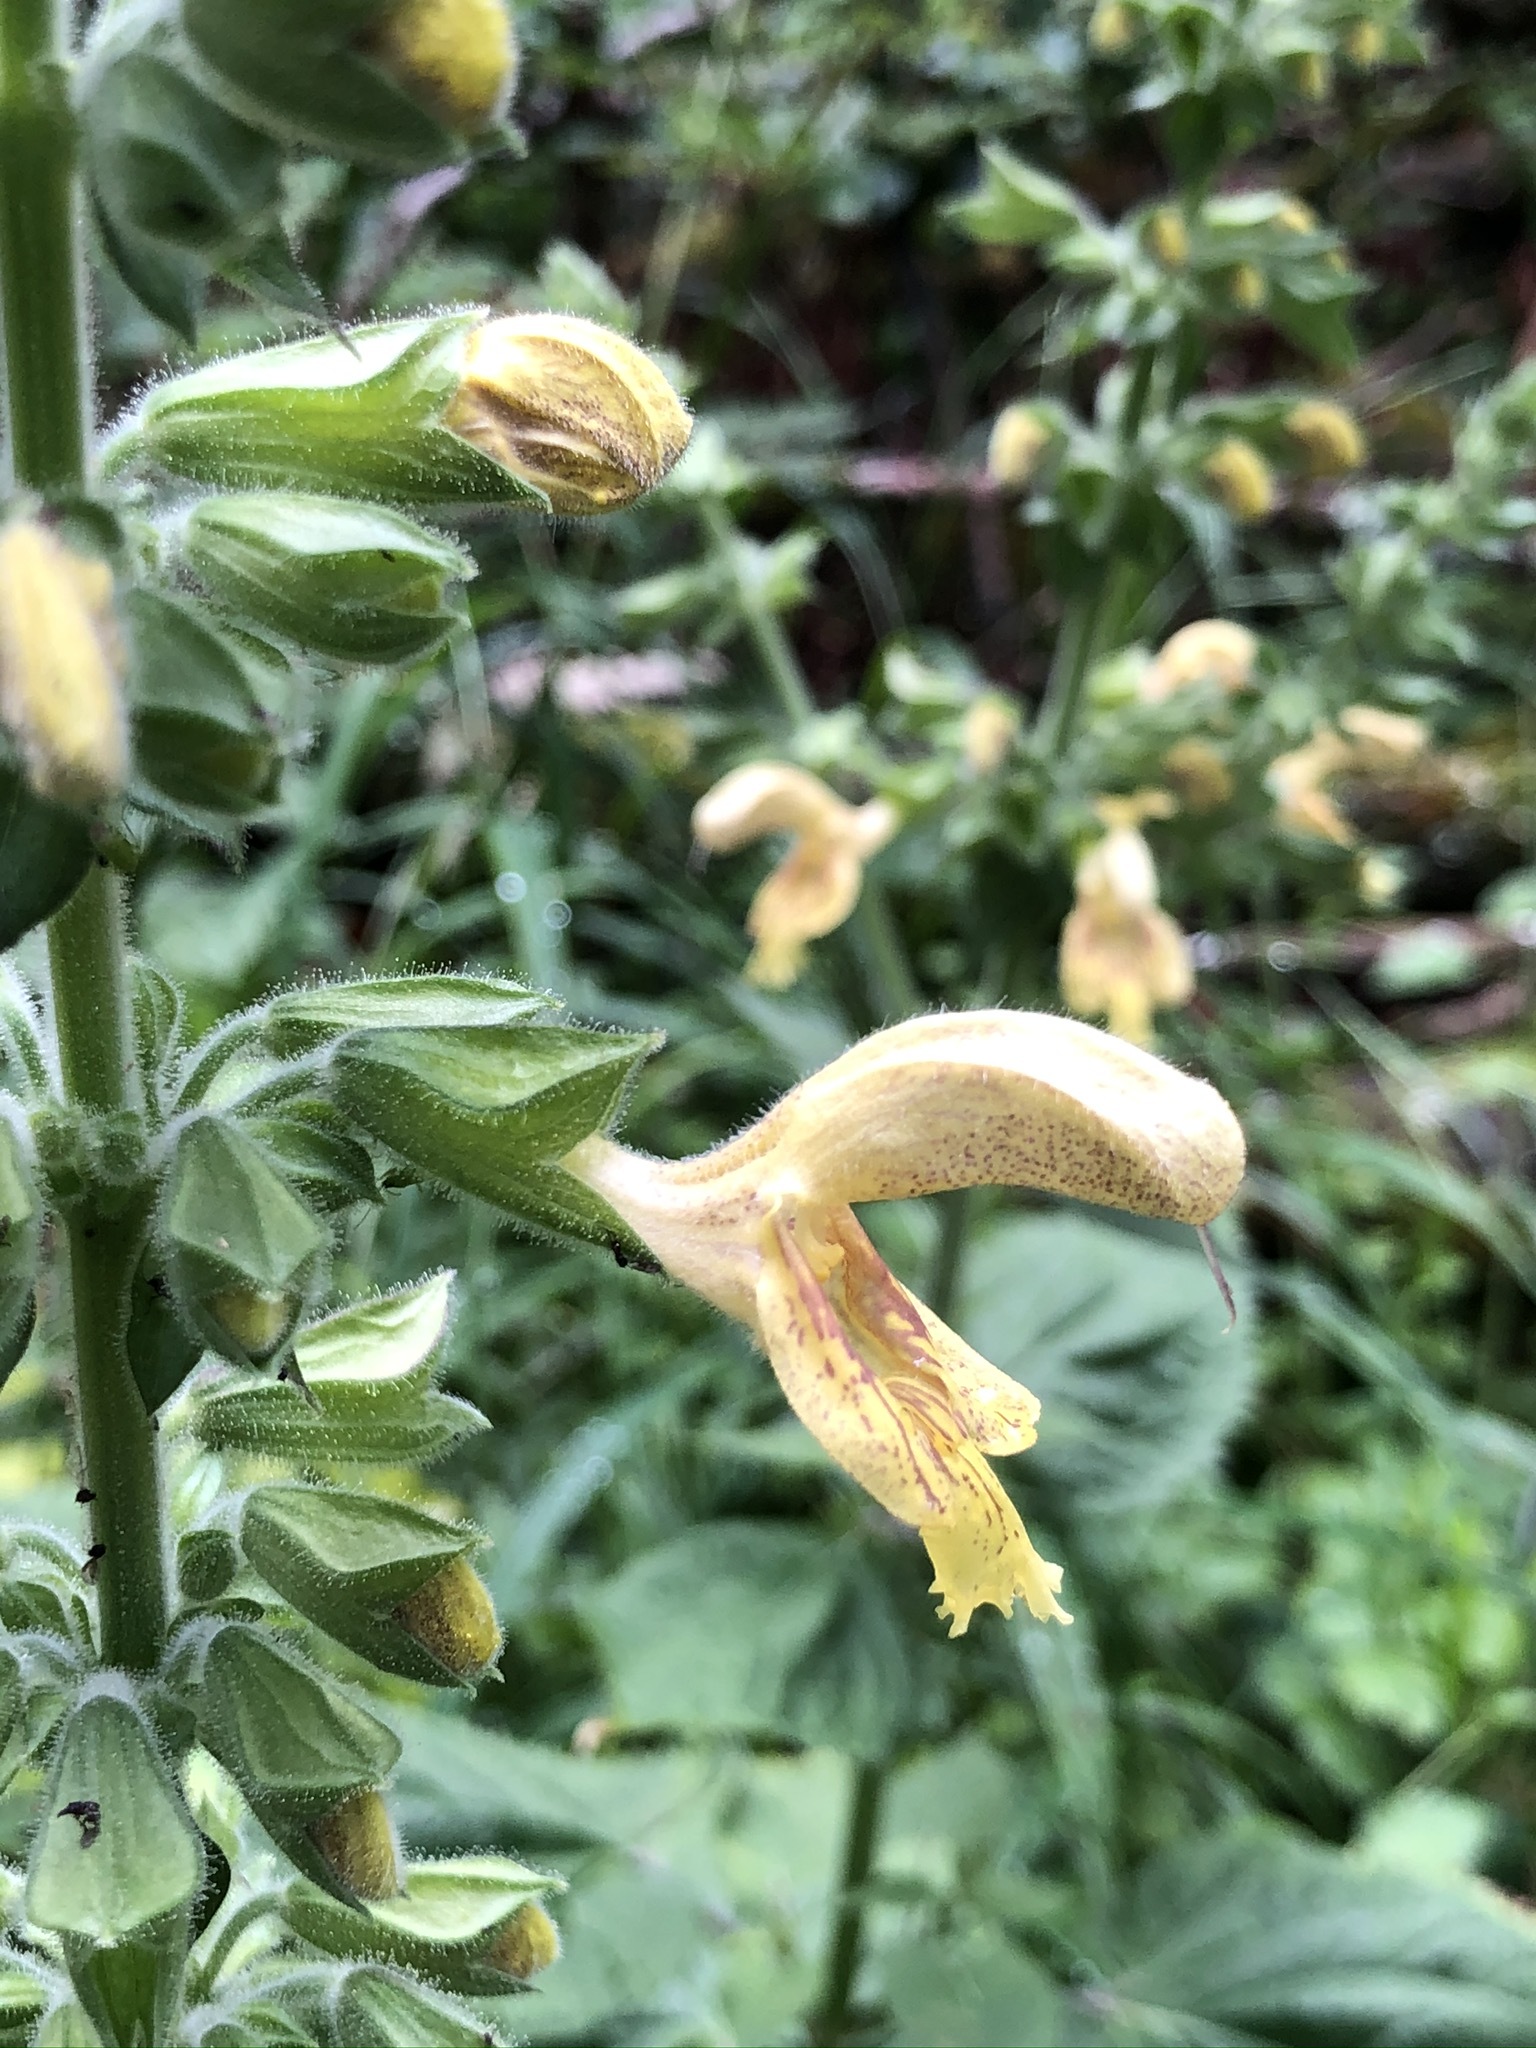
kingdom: Plantae
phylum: Tracheophyta
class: Magnoliopsida
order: Lamiales
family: Lamiaceae
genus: Salvia
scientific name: Salvia glutinosa
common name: Sticky clary
